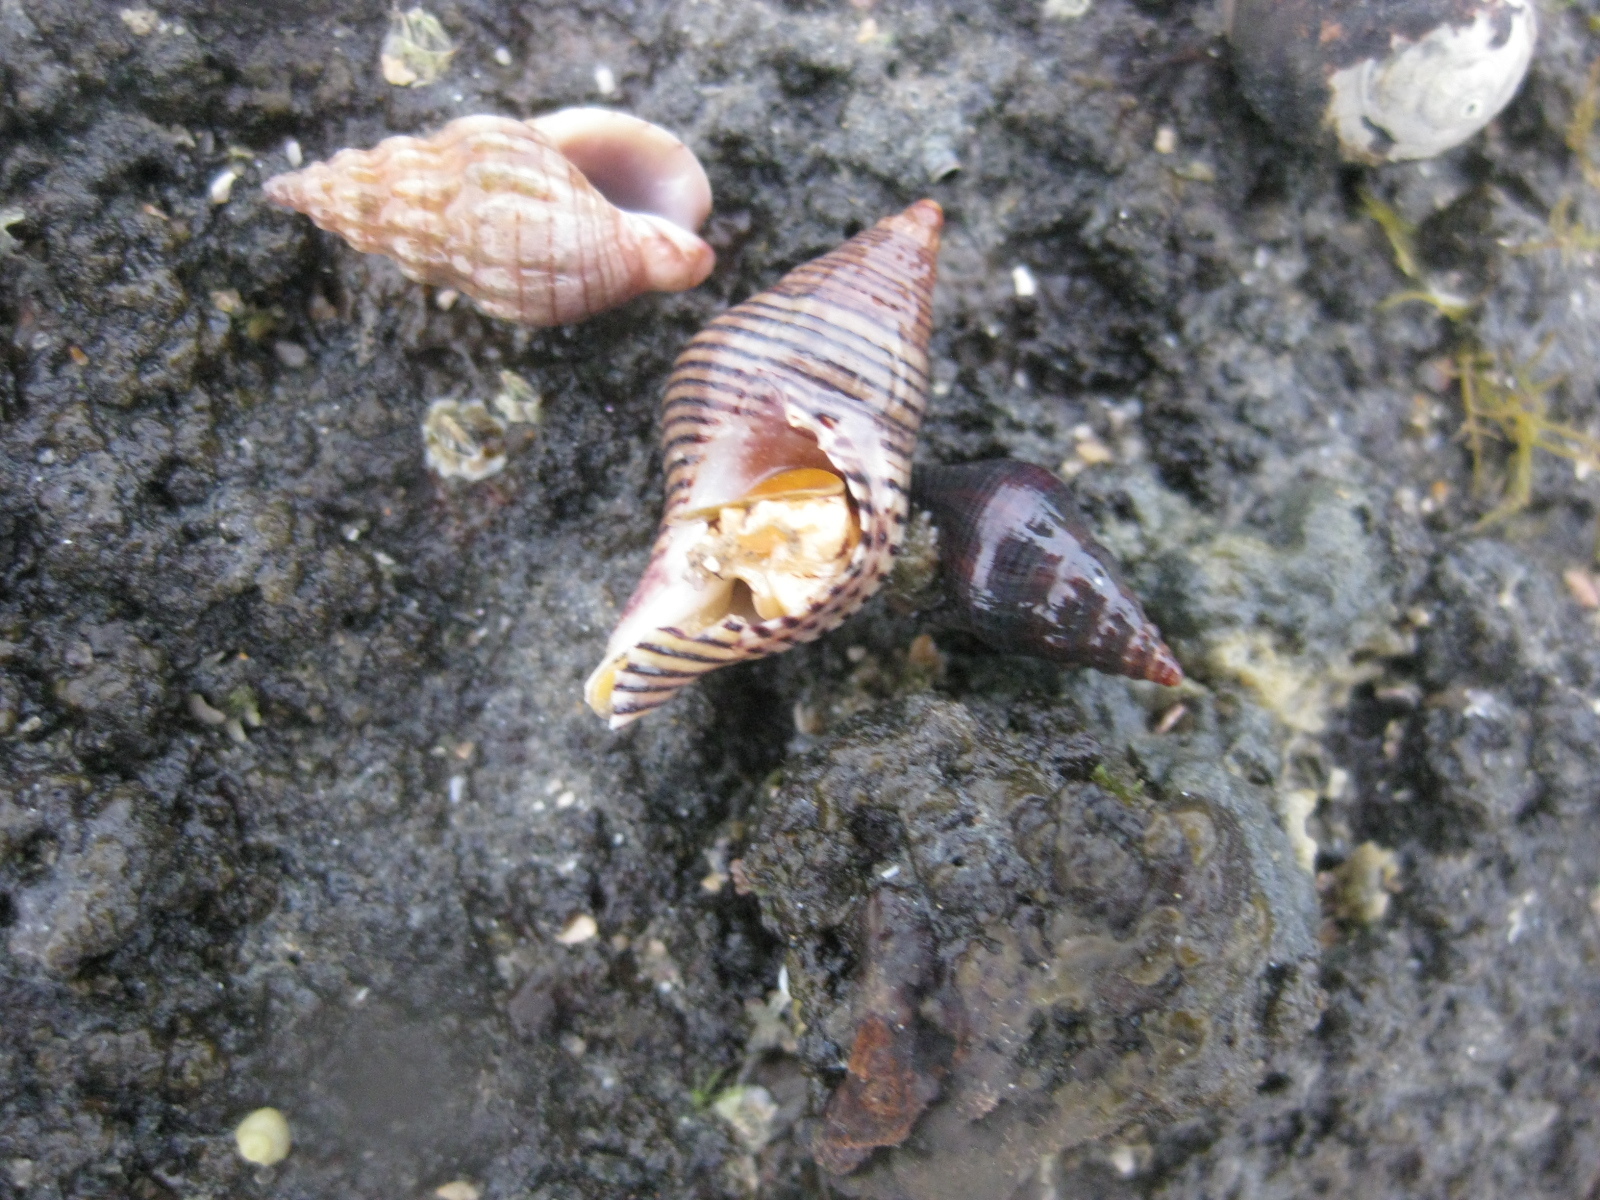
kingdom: Animalia
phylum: Mollusca
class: Gastropoda
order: Neogastropoda
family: Tudiclidae
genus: Buccinulum
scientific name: Buccinulum linea
